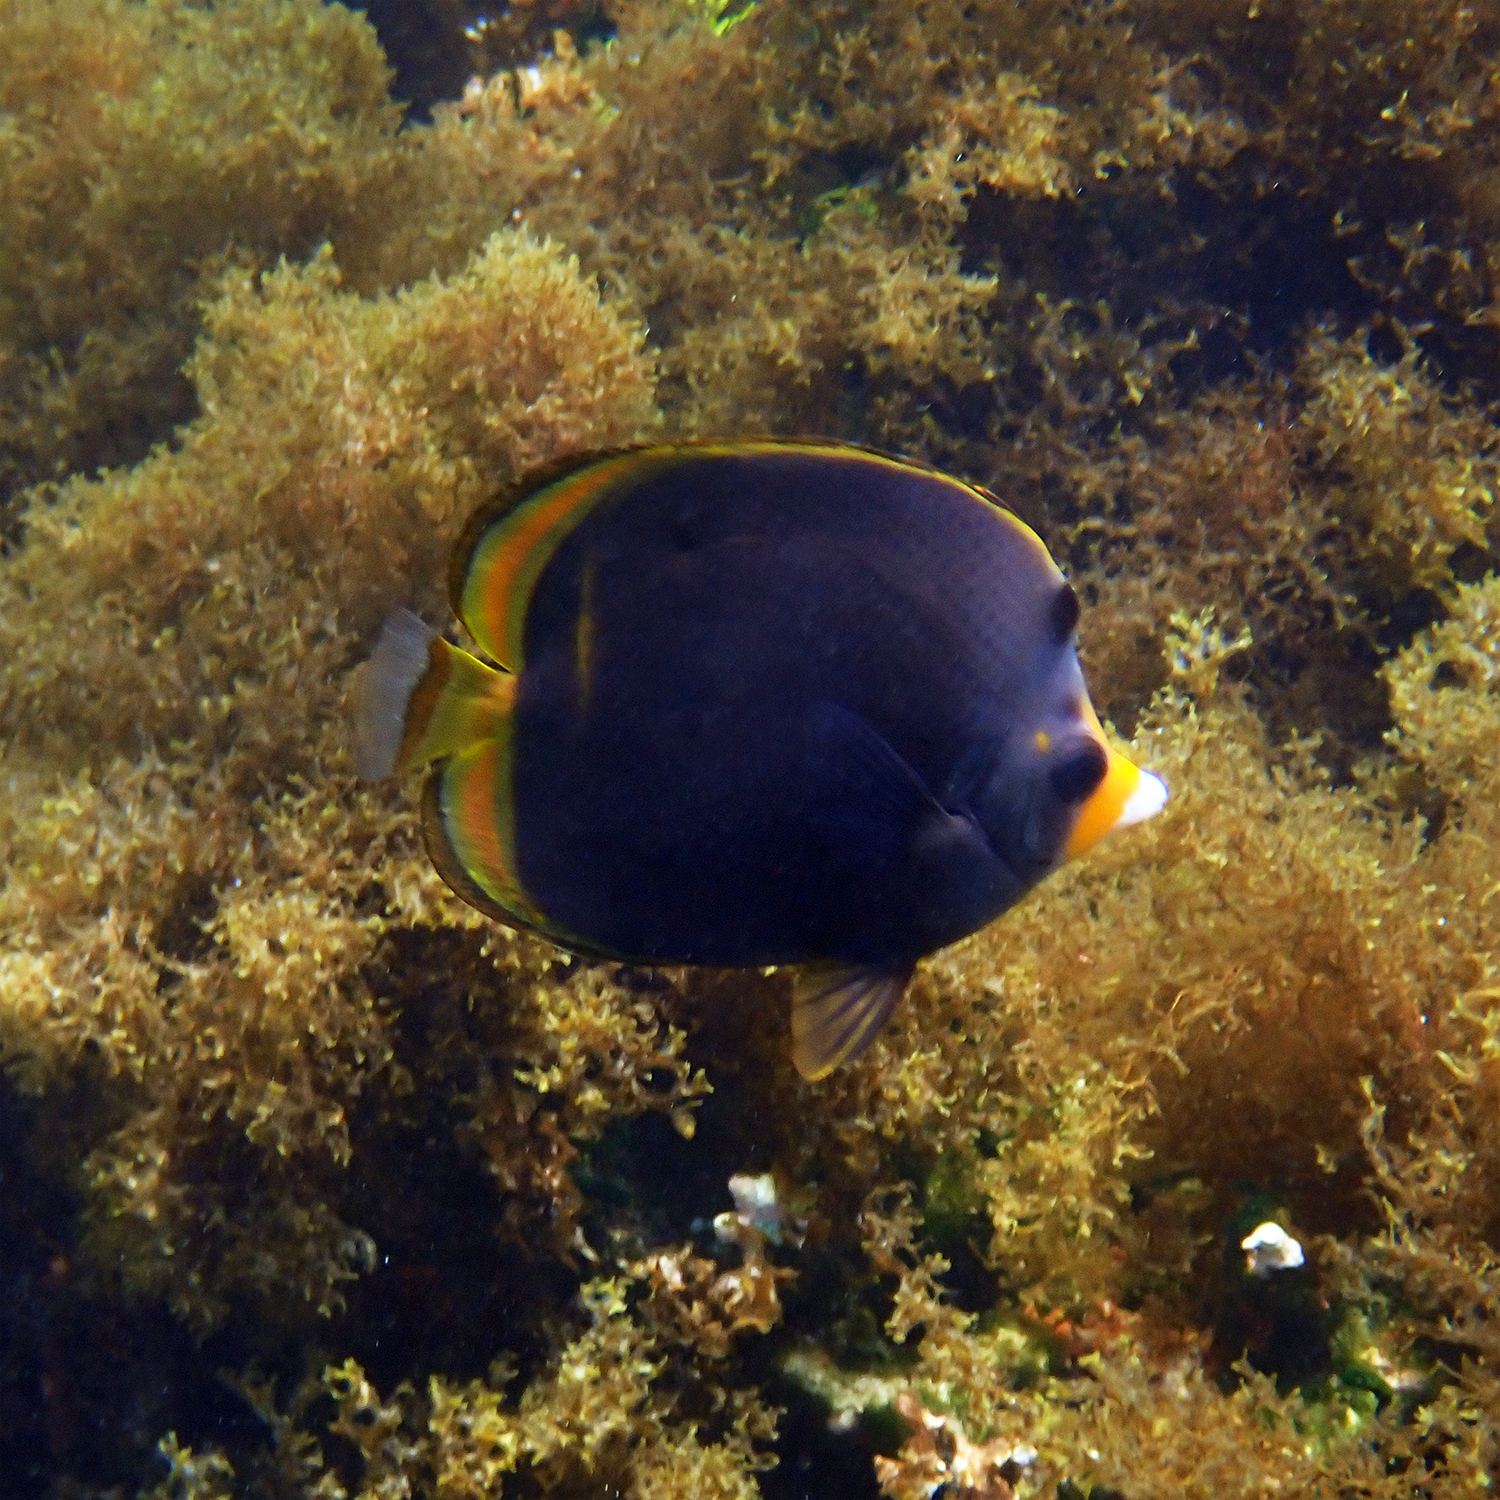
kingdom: Animalia
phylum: Chordata
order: Perciformes
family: Chaetodontidae
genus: Chaetodon
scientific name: Chaetodon flavirostris
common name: Black butterflyfish
